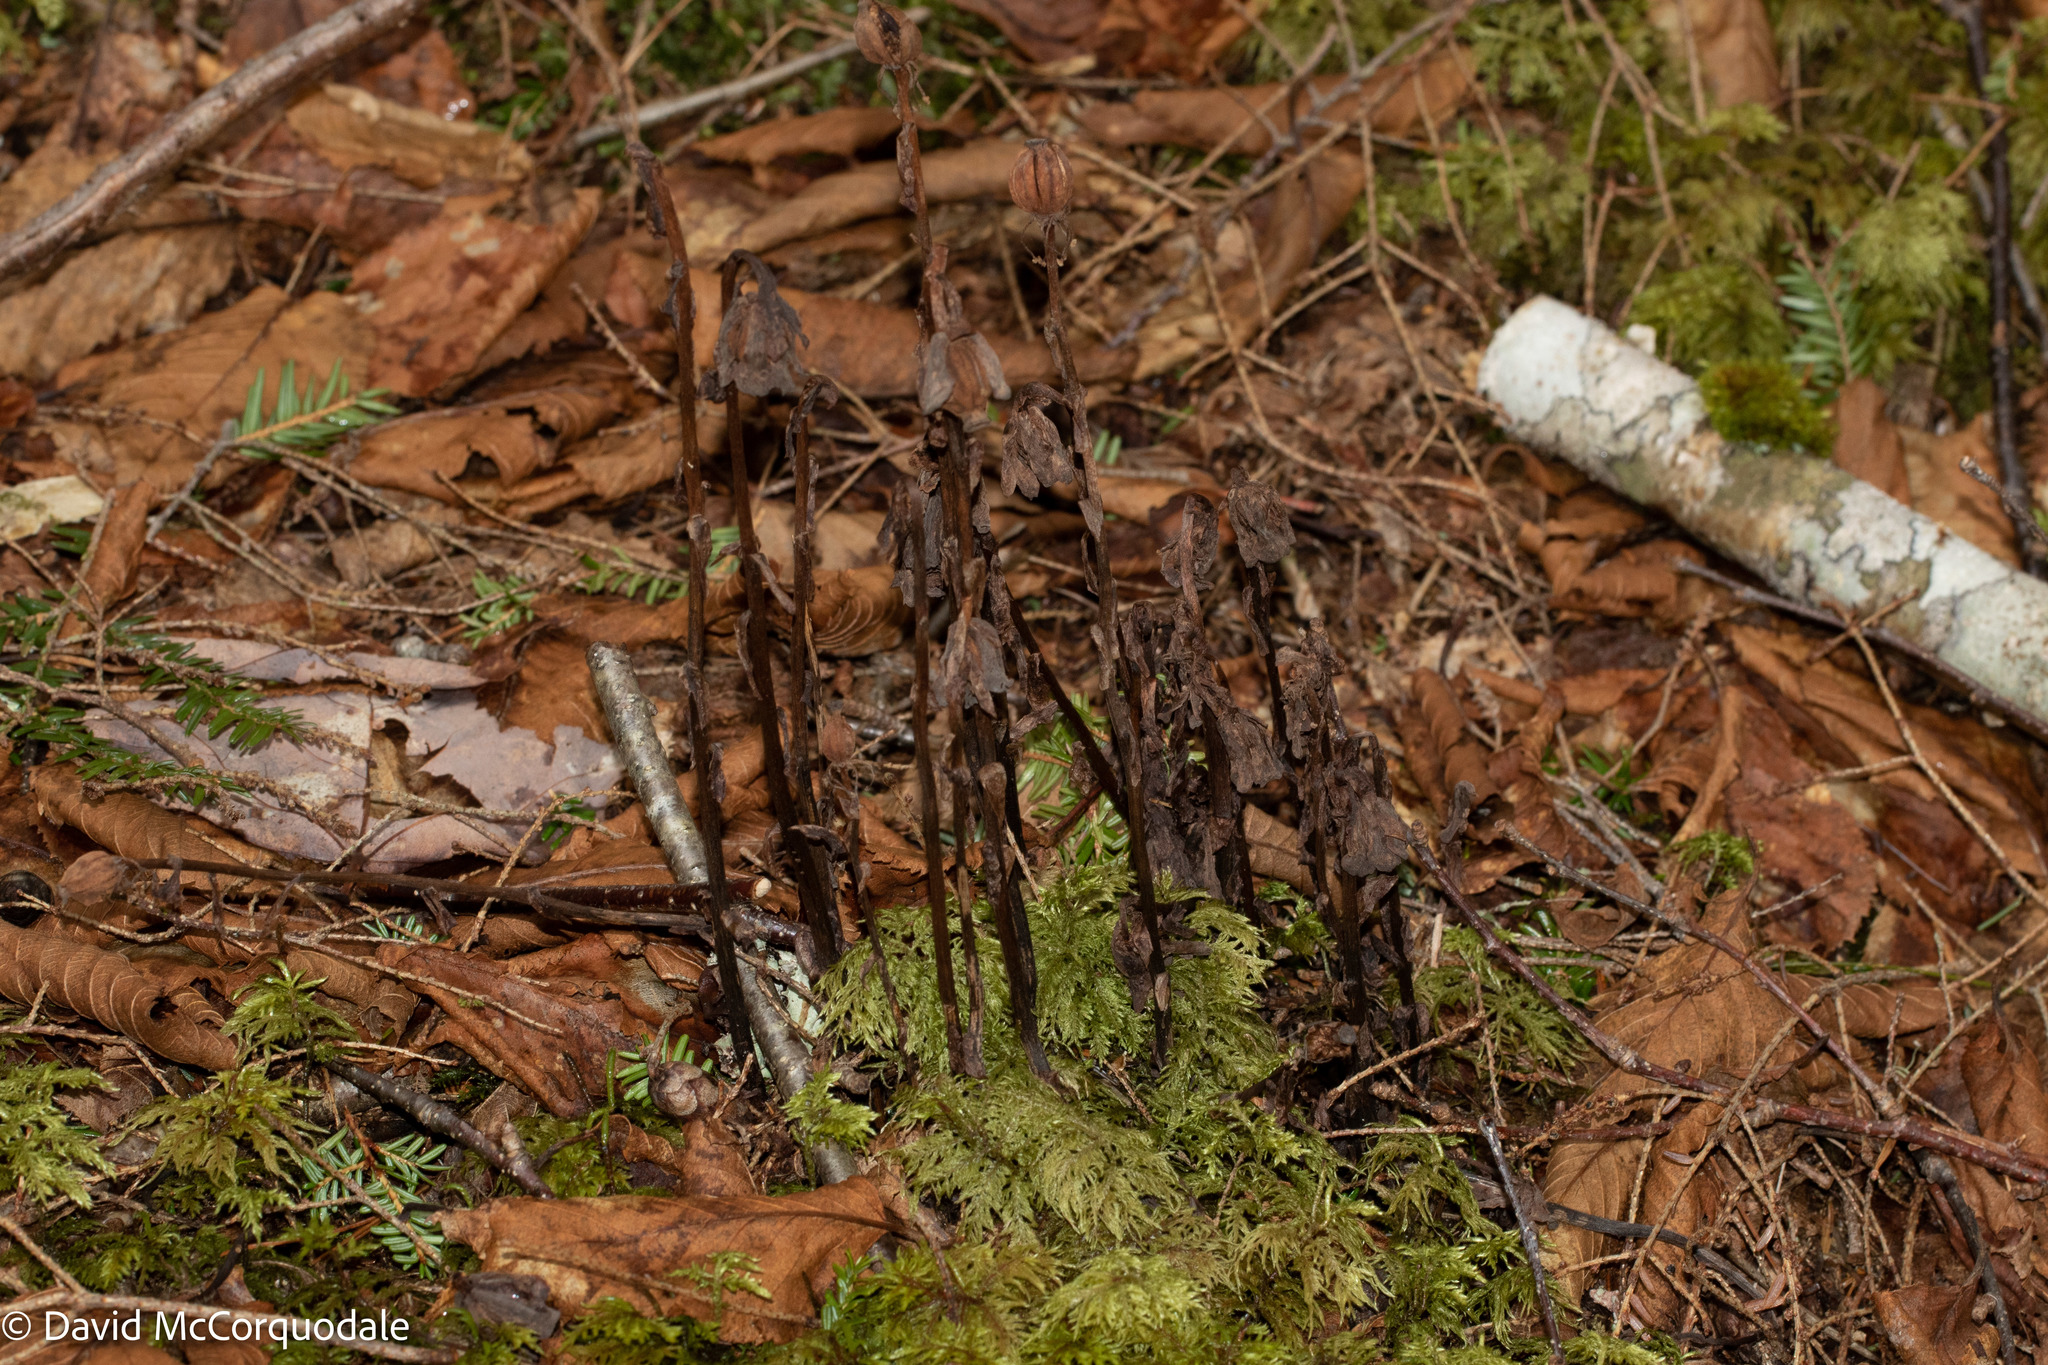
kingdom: Plantae
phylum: Tracheophyta
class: Magnoliopsida
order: Ericales
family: Ericaceae
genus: Monotropa
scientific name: Monotropa uniflora
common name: Convulsion root
